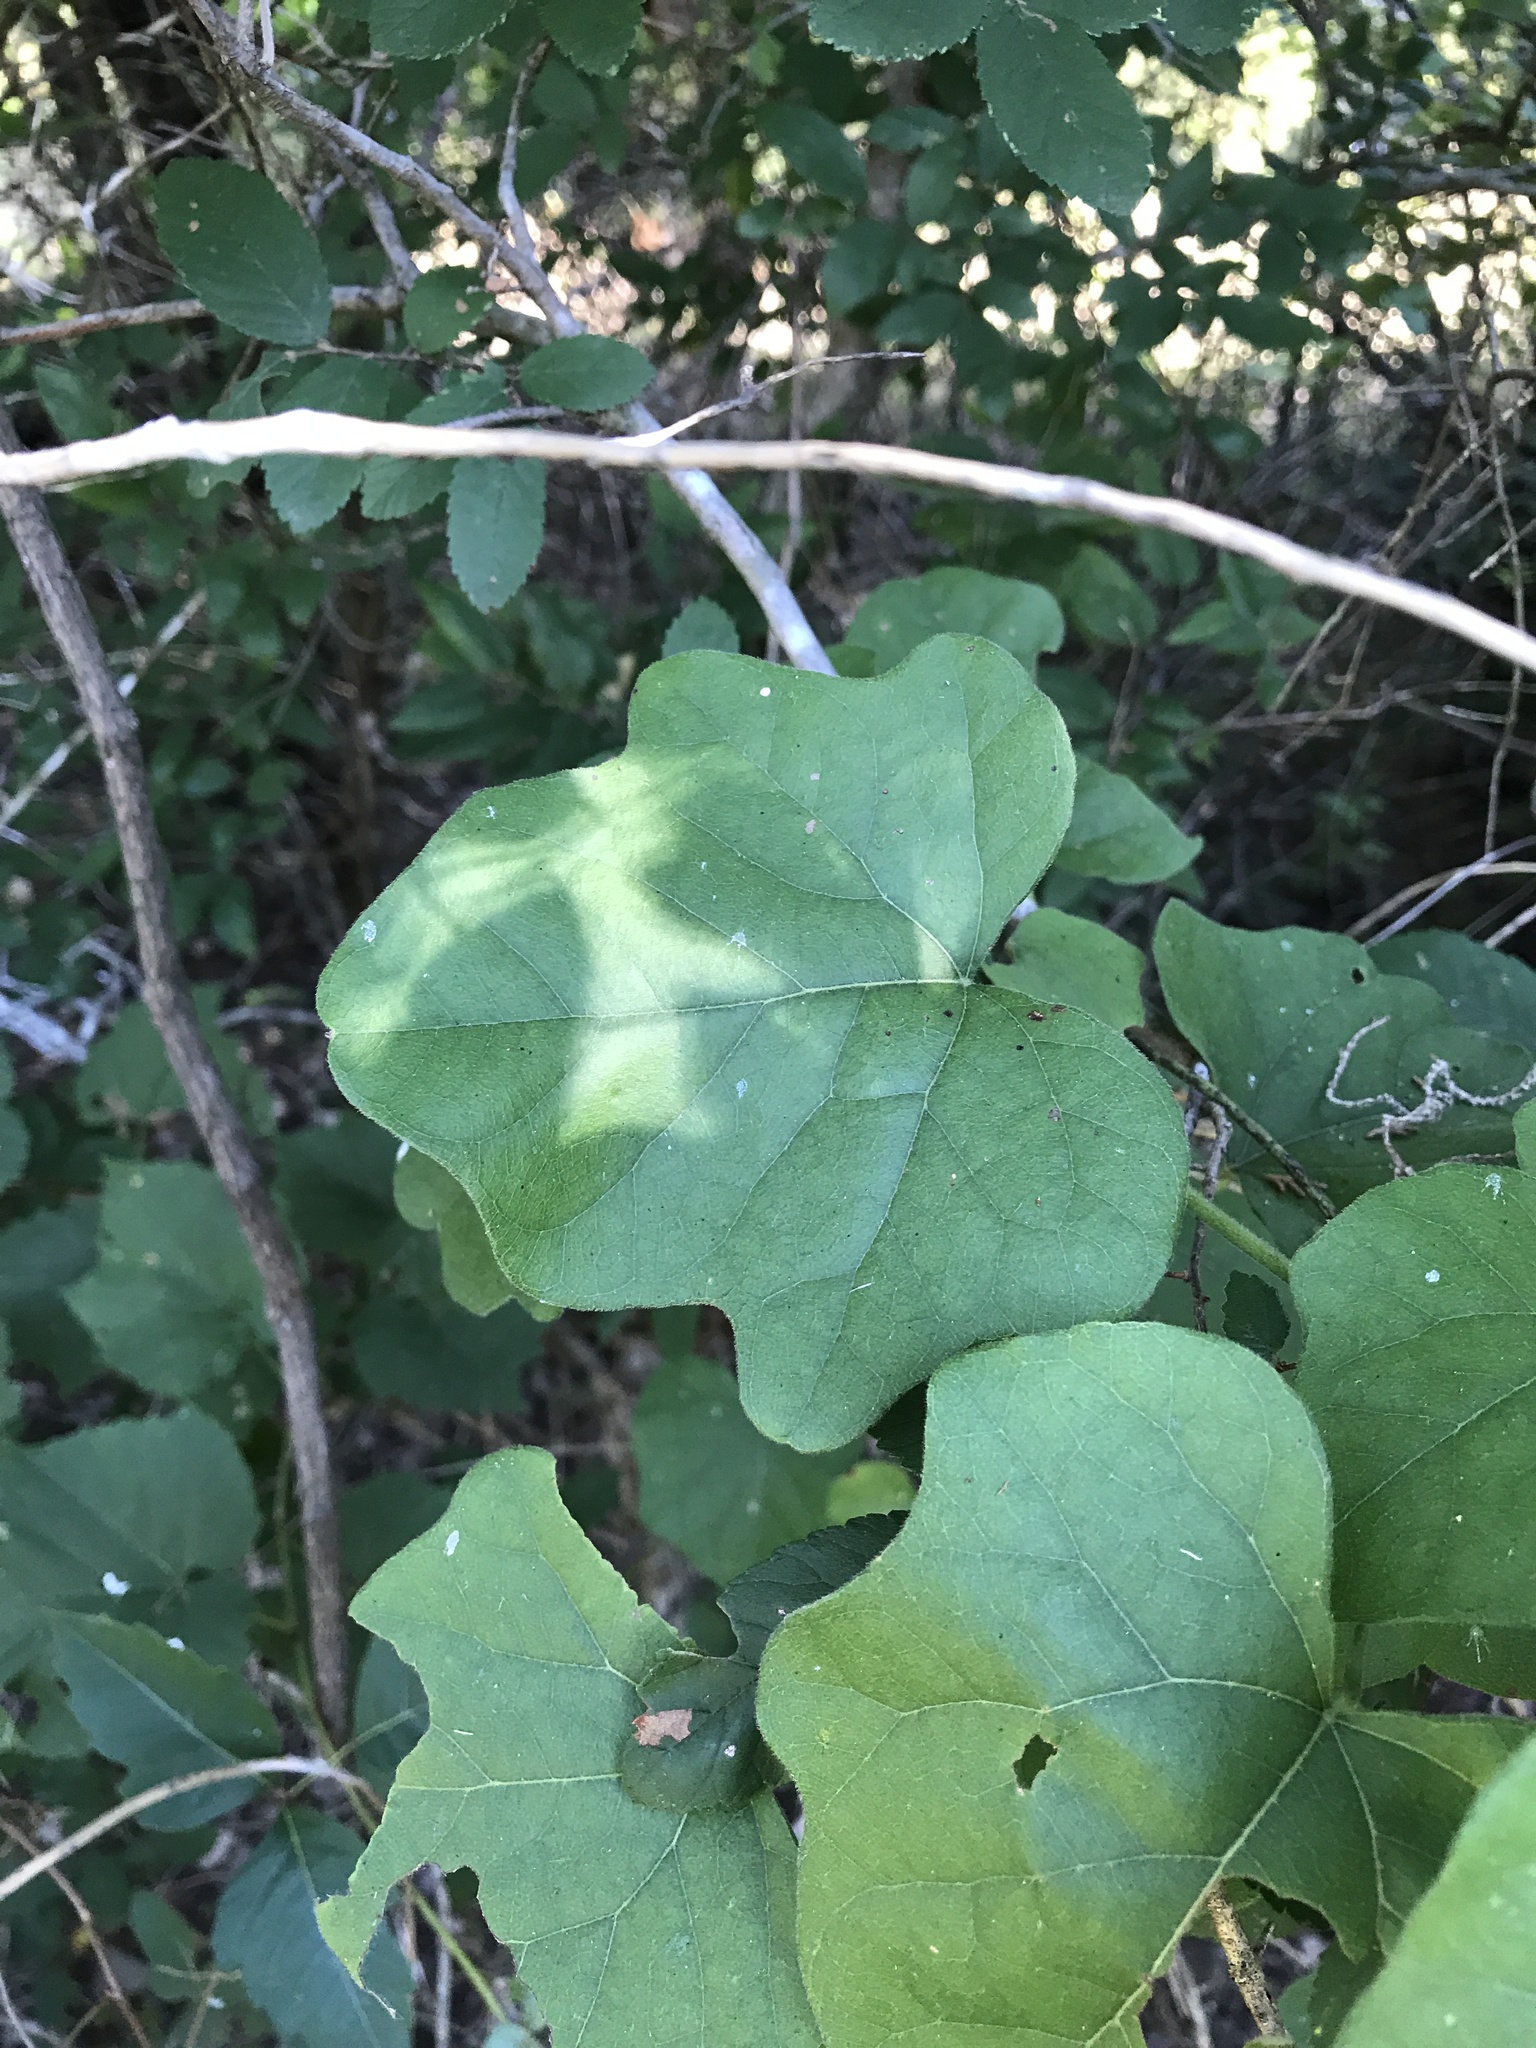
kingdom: Plantae
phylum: Tracheophyta
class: Magnoliopsida
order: Ranunculales
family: Menispermaceae
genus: Cocculus
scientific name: Cocculus carolinus
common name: Carolina moonseed
